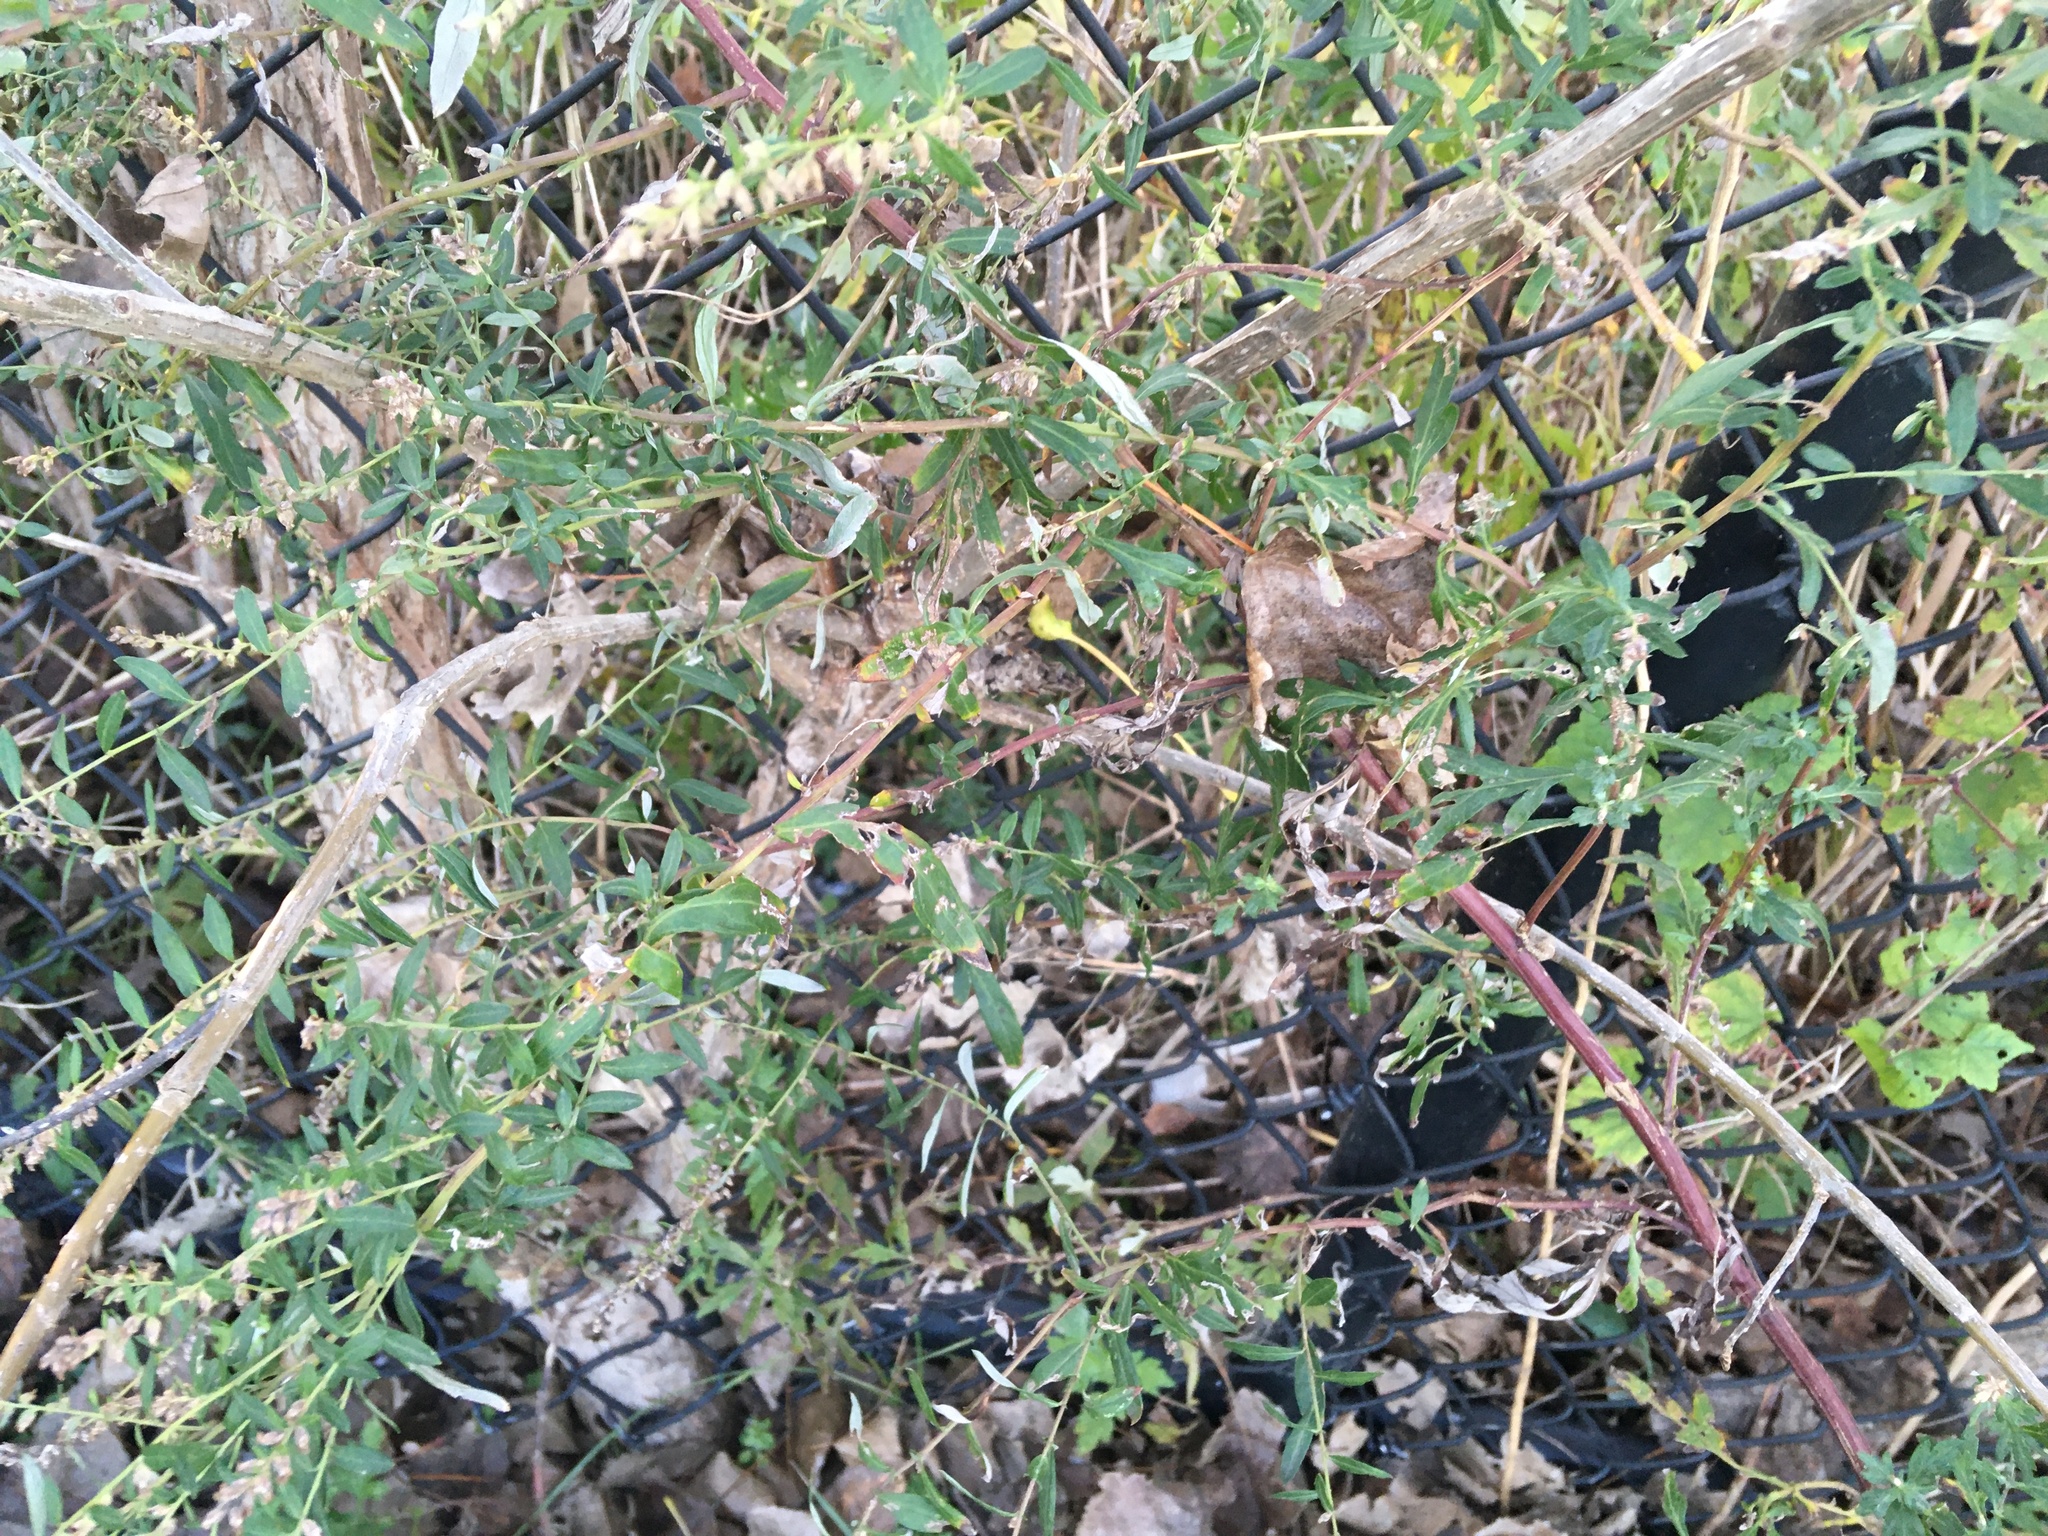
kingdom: Plantae
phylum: Tracheophyta
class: Magnoliopsida
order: Asterales
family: Asteraceae
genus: Artemisia
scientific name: Artemisia vulgaris
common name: Mugwort
